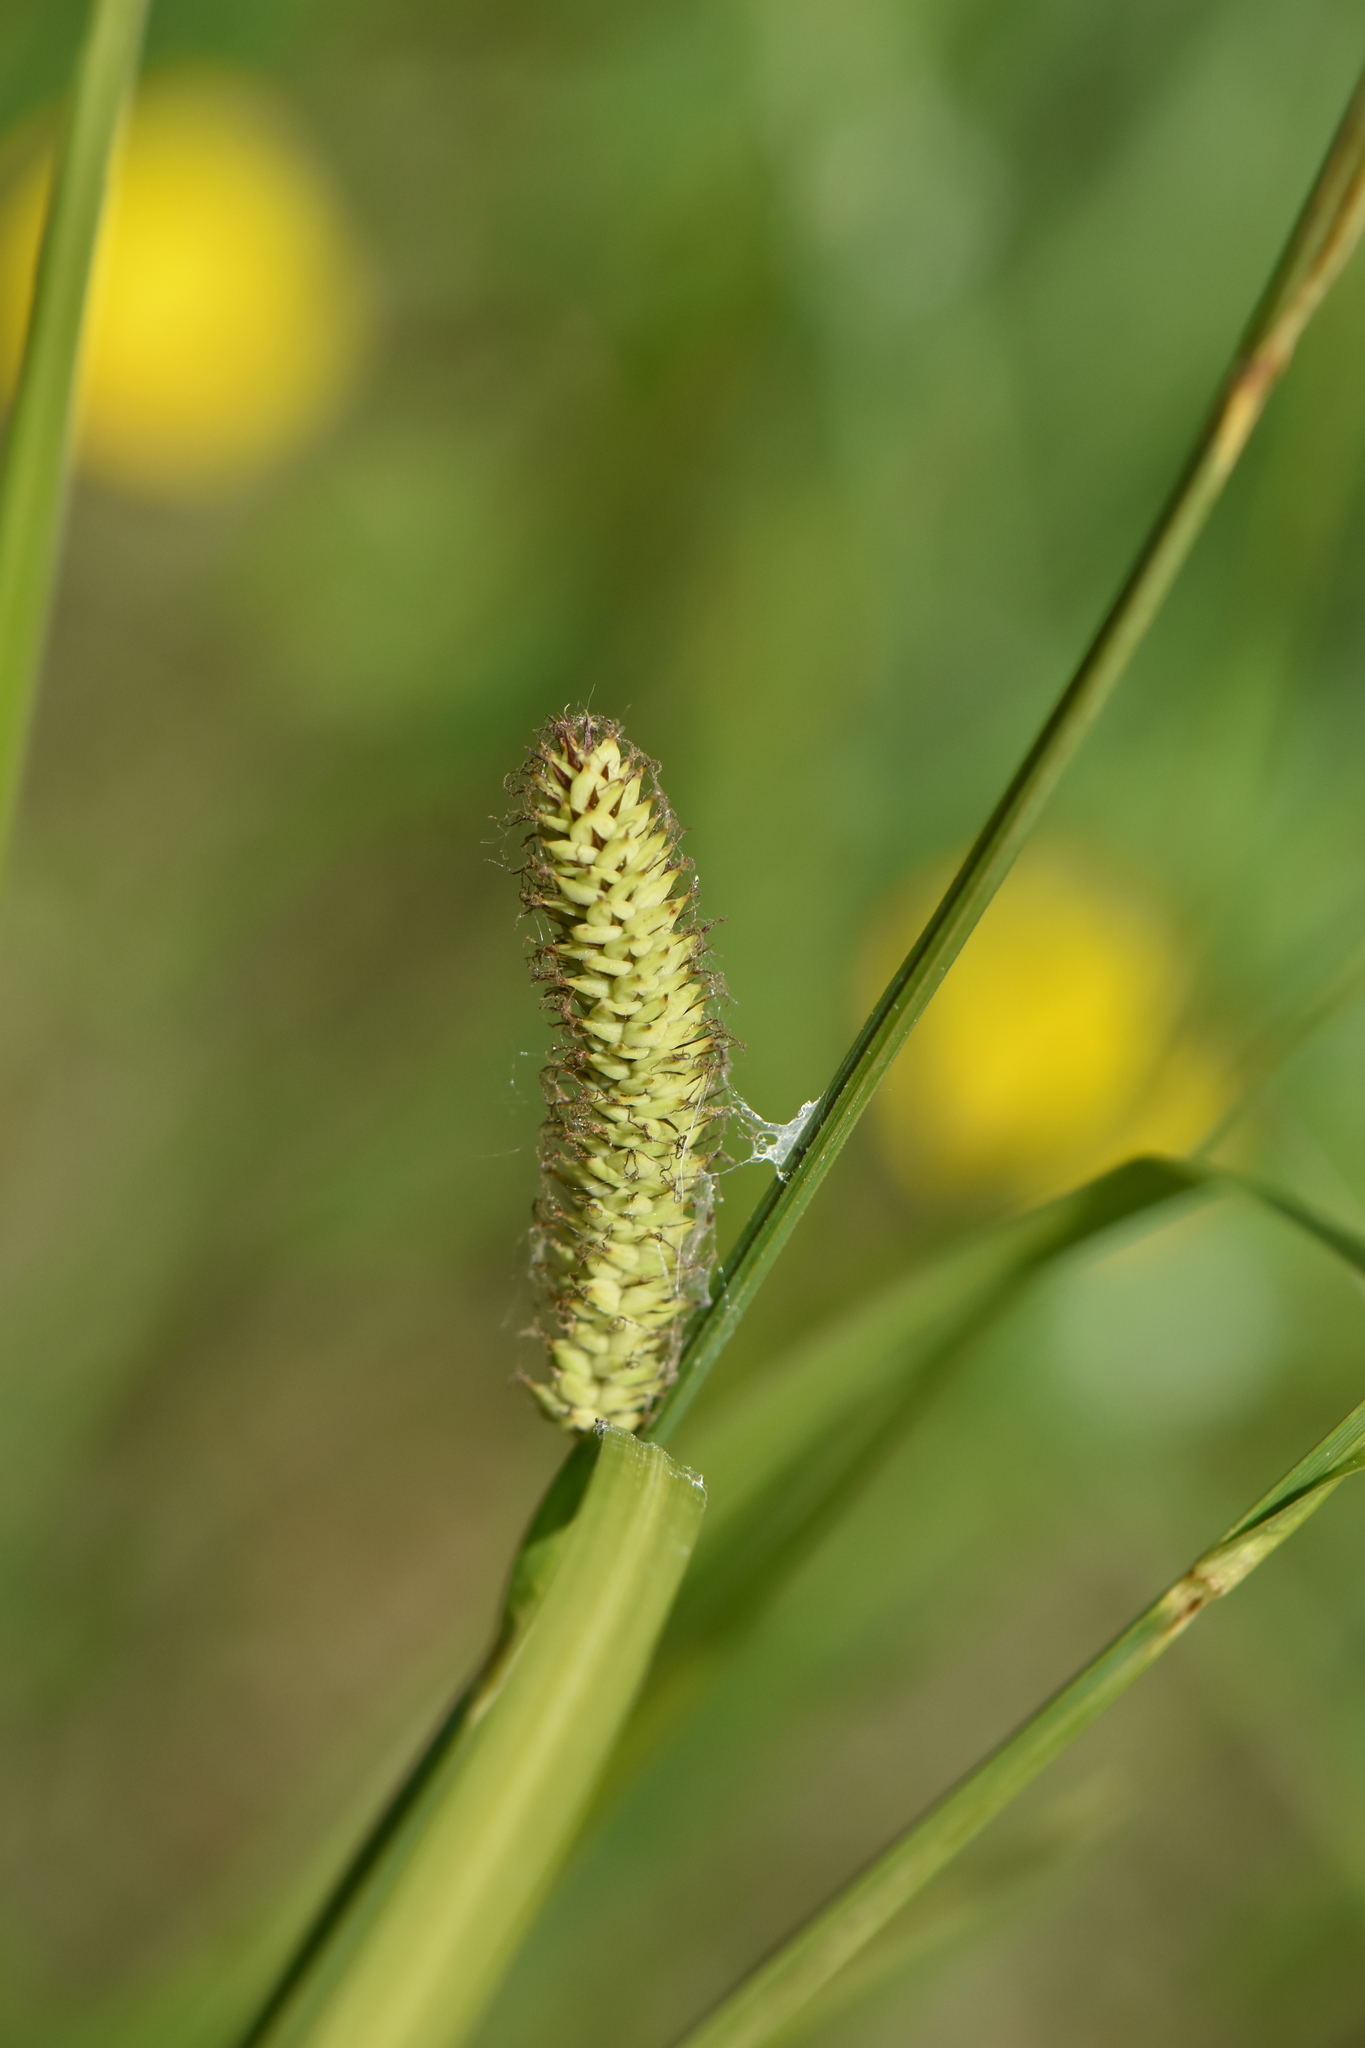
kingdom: Plantae
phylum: Tracheophyta
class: Liliopsida
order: Poales
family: Cyperaceae
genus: Carex
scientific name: Carex acutiformis
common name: Lesser pond-sedge
